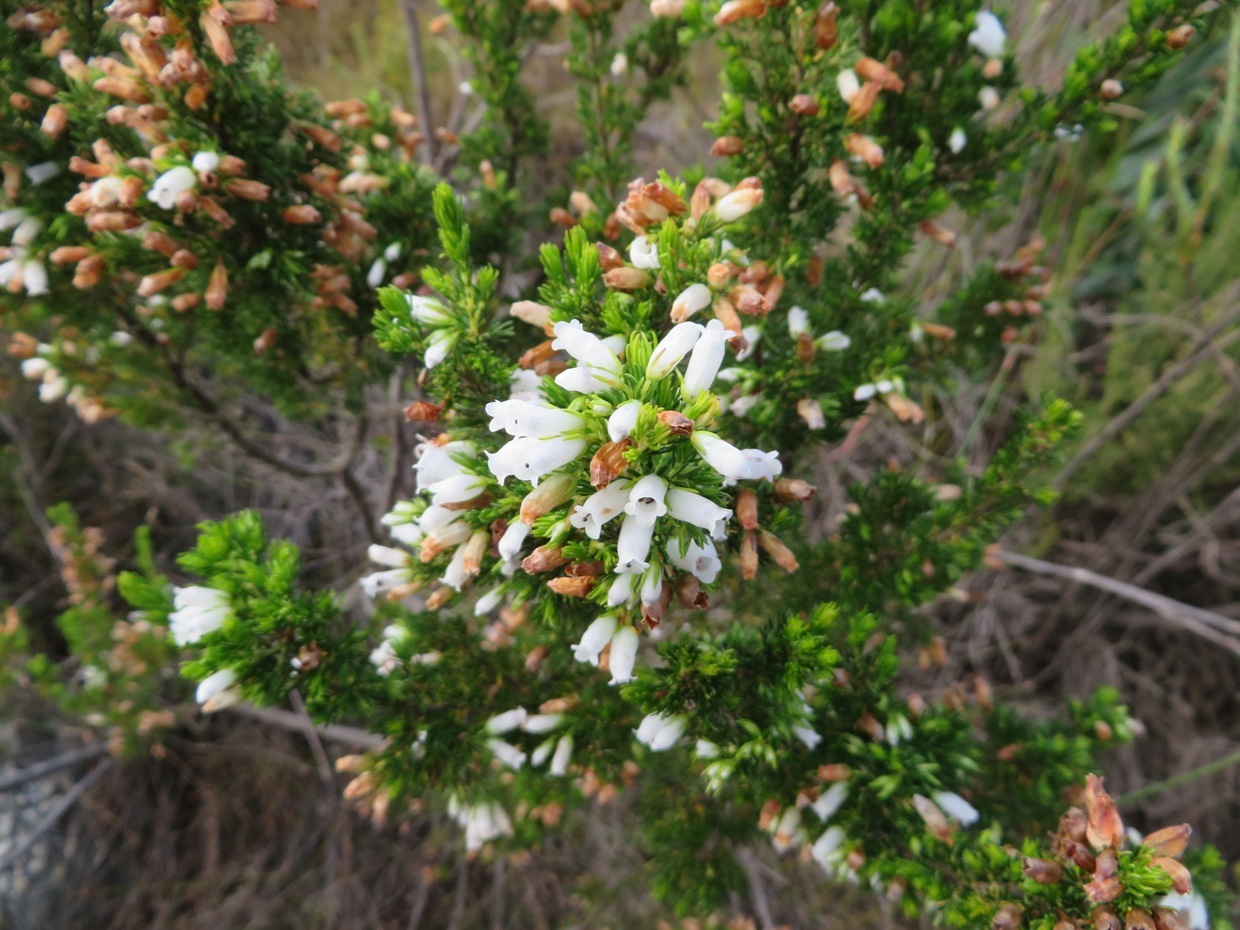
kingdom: Plantae
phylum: Tracheophyta
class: Magnoliopsida
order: Ericales
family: Ericaceae
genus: Erica
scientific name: Erica sitiens
